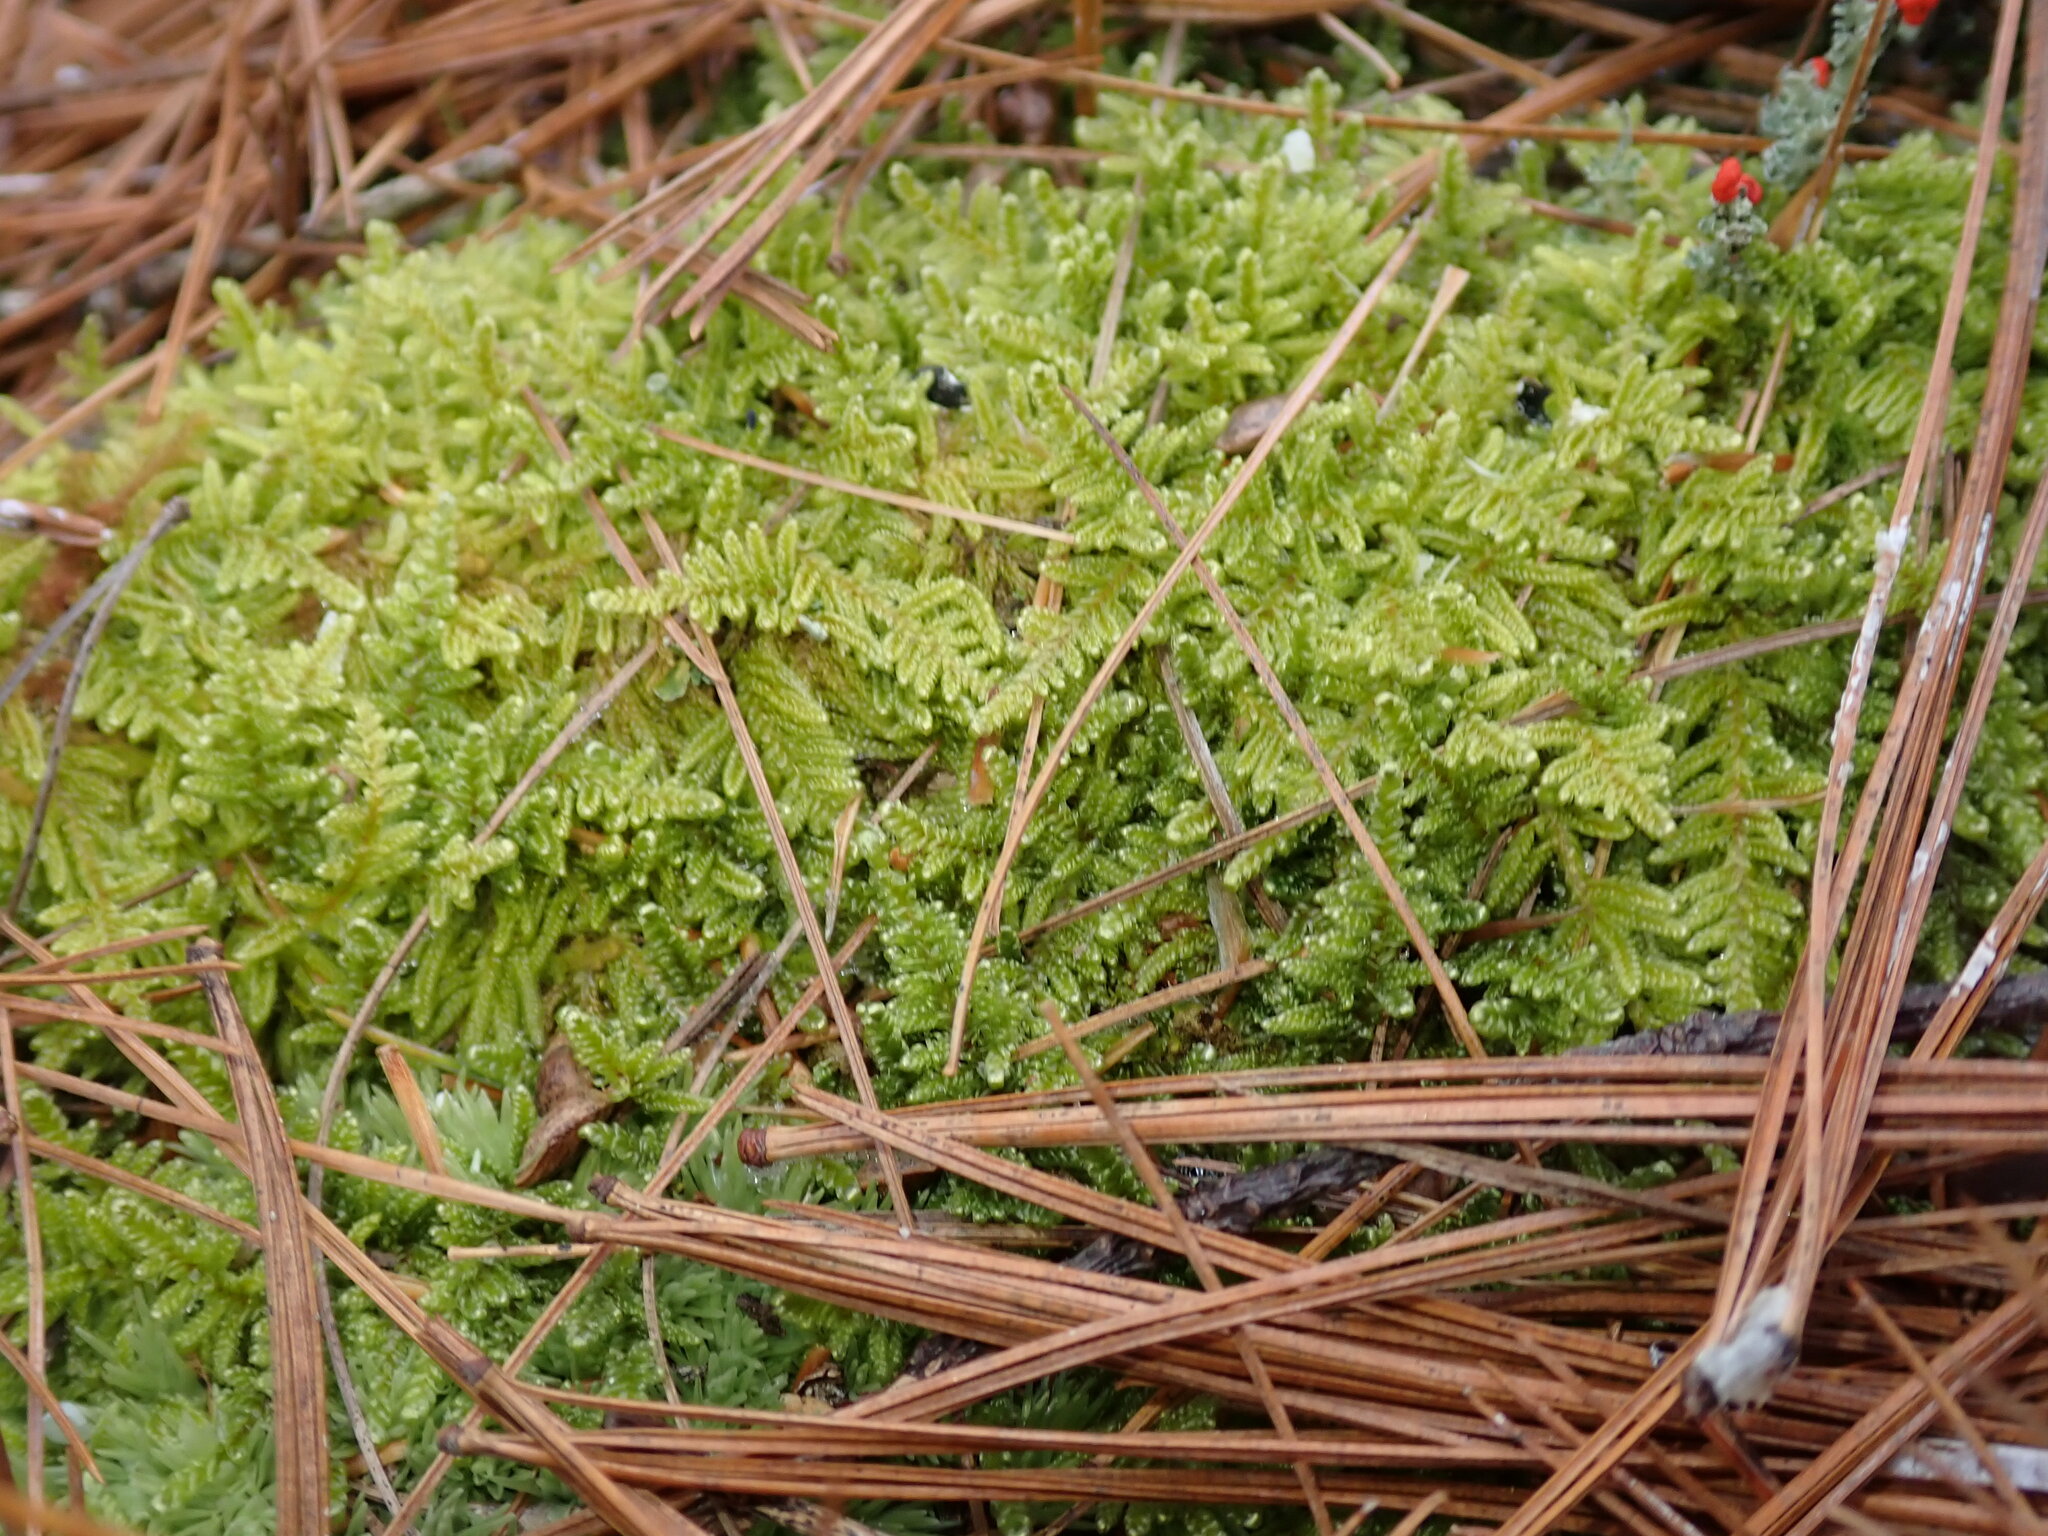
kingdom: Plantae
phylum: Bryophyta
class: Bryopsida
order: Hypnales
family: Callicladiaceae
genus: Callicladium
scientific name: Callicladium imponens
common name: Brocade moss
